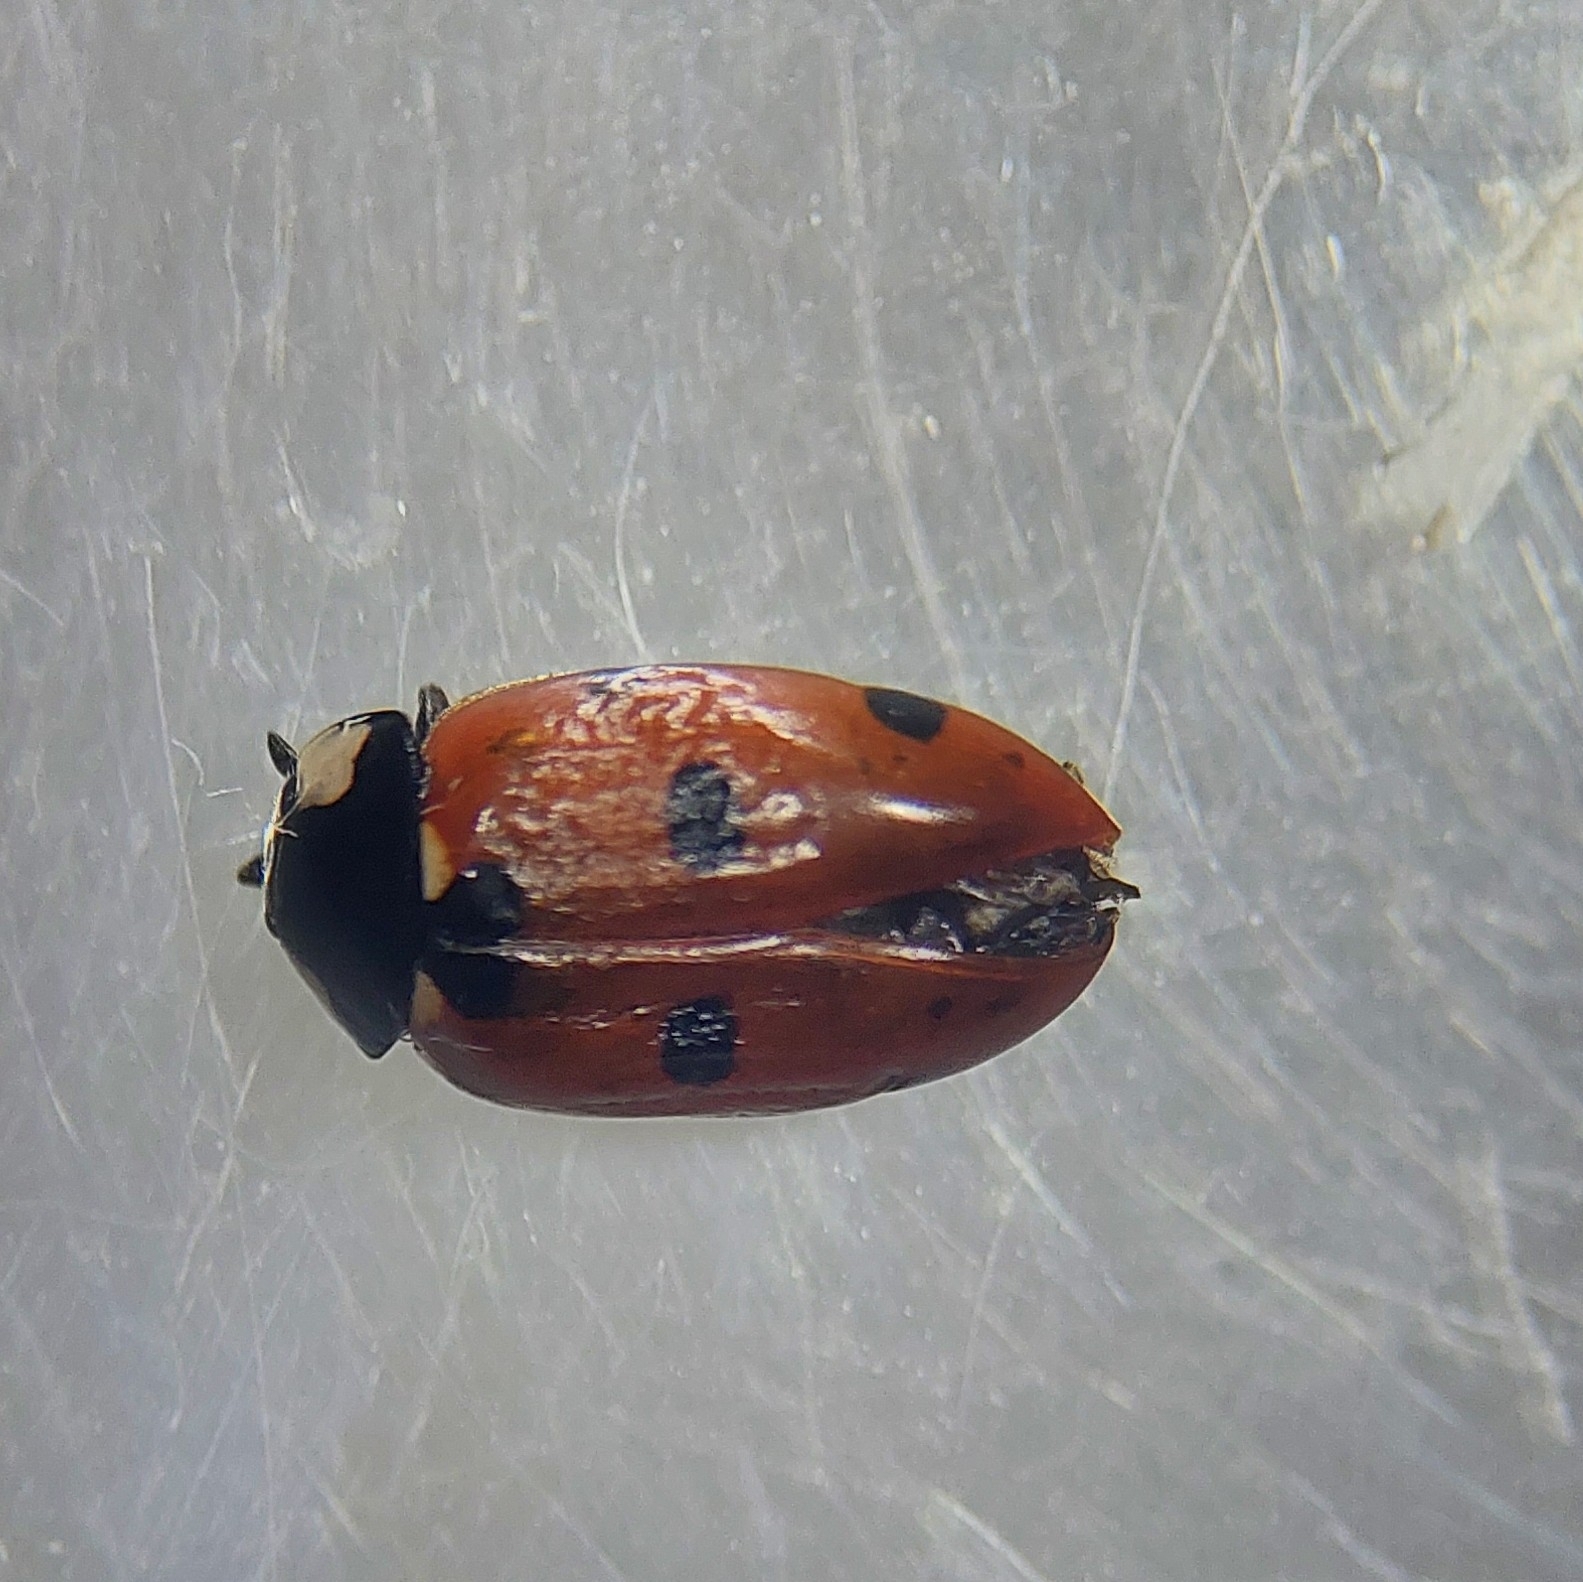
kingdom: Animalia
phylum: Arthropoda
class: Insecta
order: Coleoptera
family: Coccinellidae
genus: Coccinella
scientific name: Coccinella septempunctata
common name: Sevenspotted lady beetle
